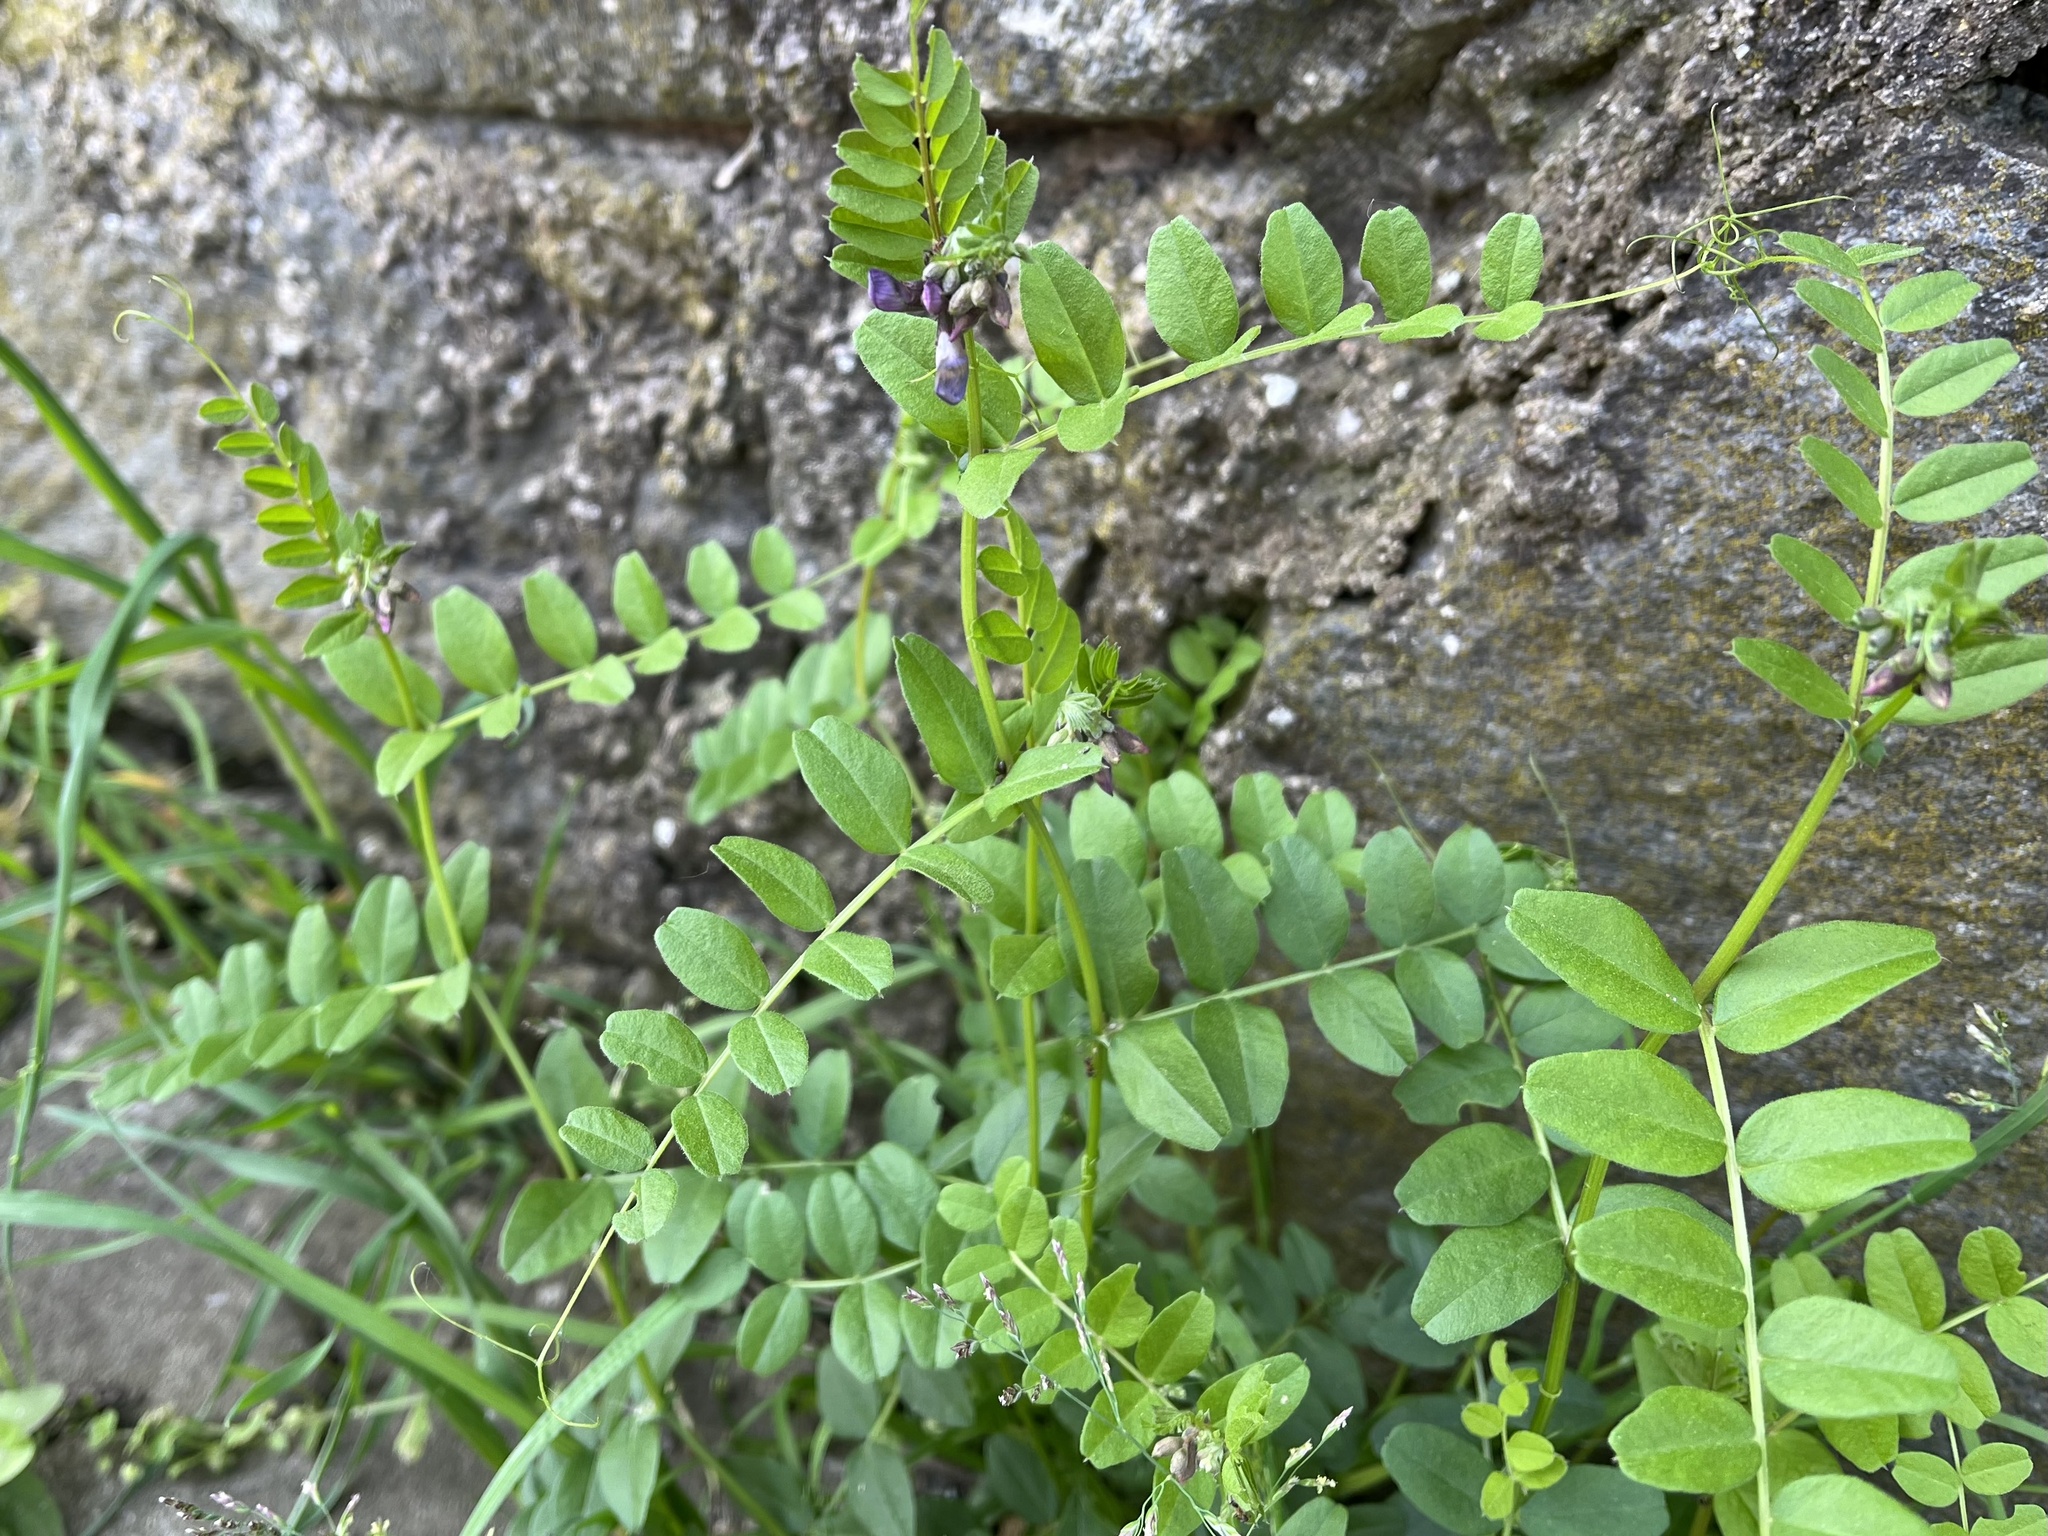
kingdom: Plantae
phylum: Tracheophyta
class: Magnoliopsida
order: Fabales
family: Fabaceae
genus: Vicia
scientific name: Vicia sepium
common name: Bush vetch
